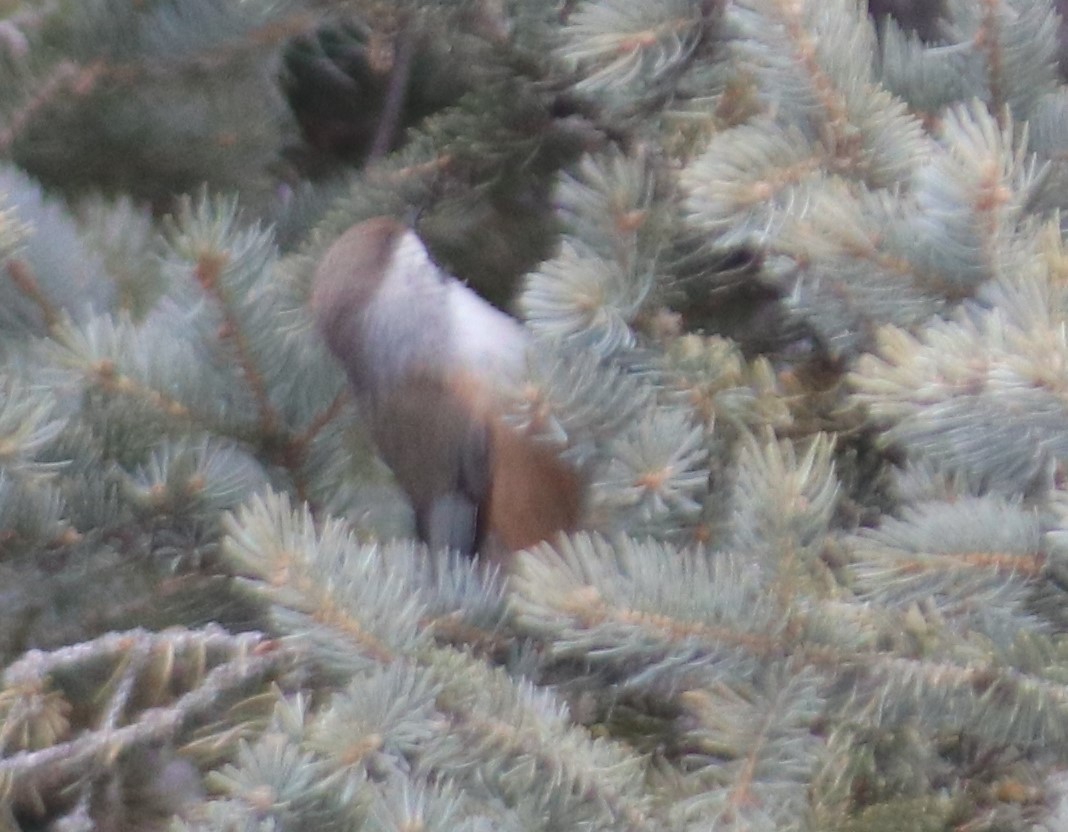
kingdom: Animalia
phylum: Chordata
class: Aves
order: Passeriformes
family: Paridae
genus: Poecile
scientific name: Poecile hudsonicus
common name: Boreal chickadee
